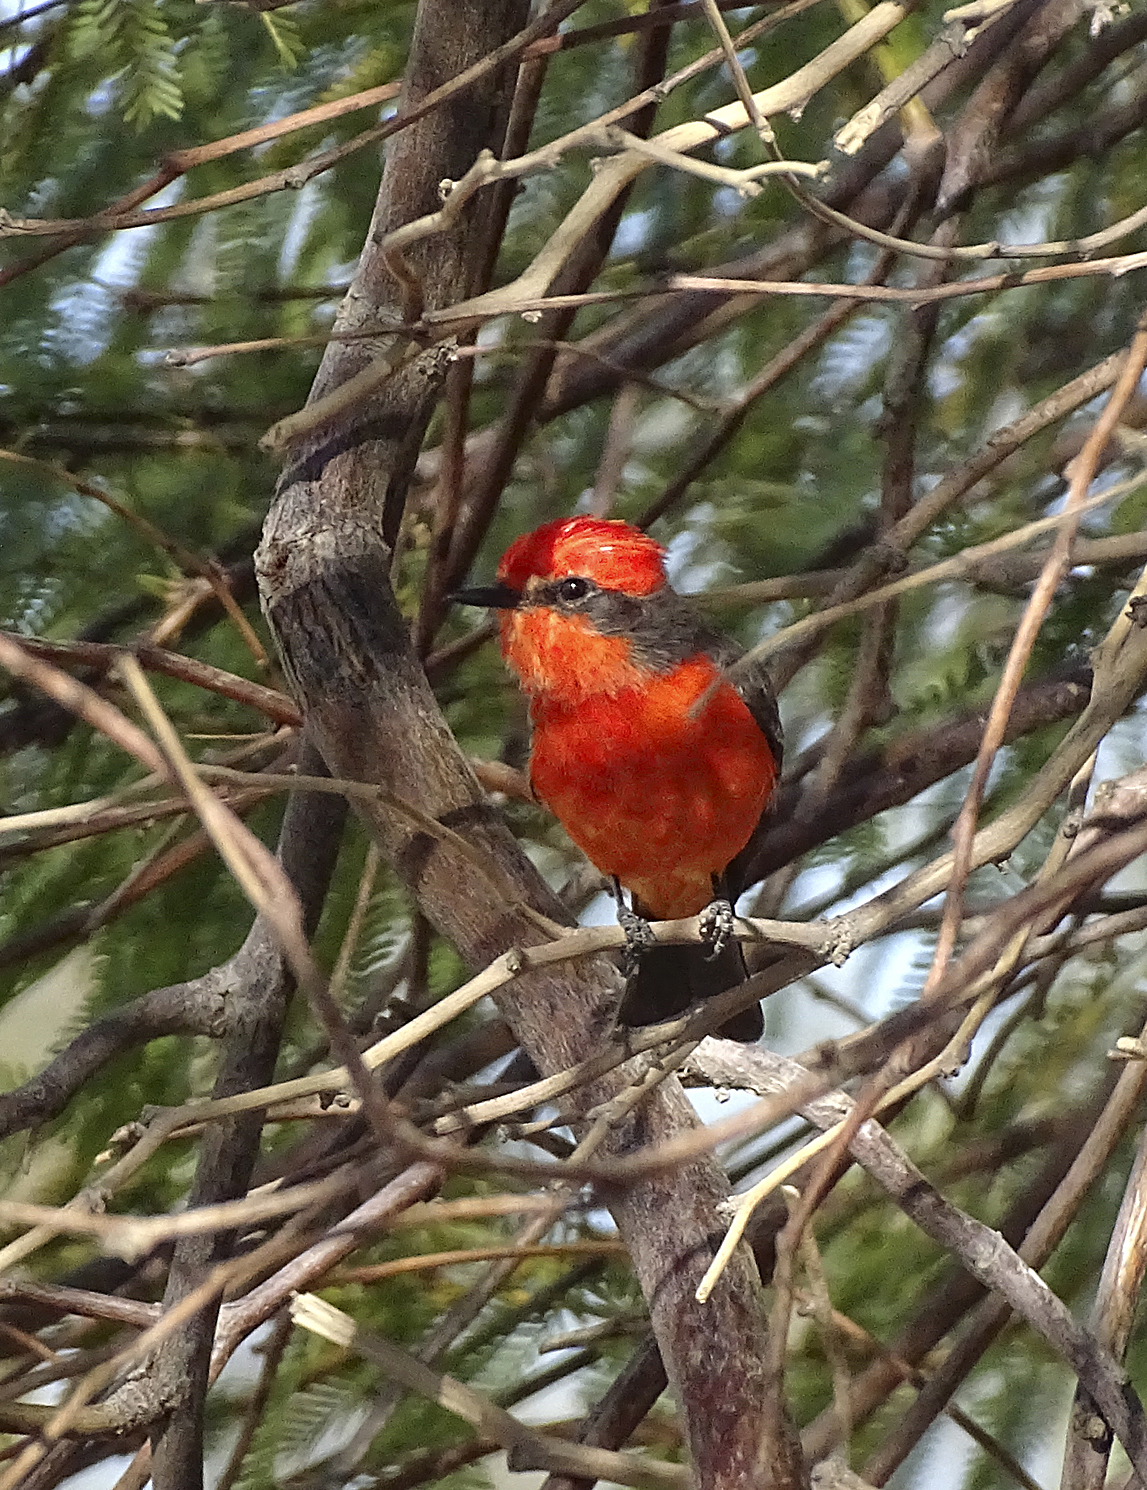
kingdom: Animalia
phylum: Chordata
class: Aves
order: Passeriformes
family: Tyrannidae
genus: Pyrocephalus
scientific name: Pyrocephalus rubinus
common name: Vermilion flycatcher
